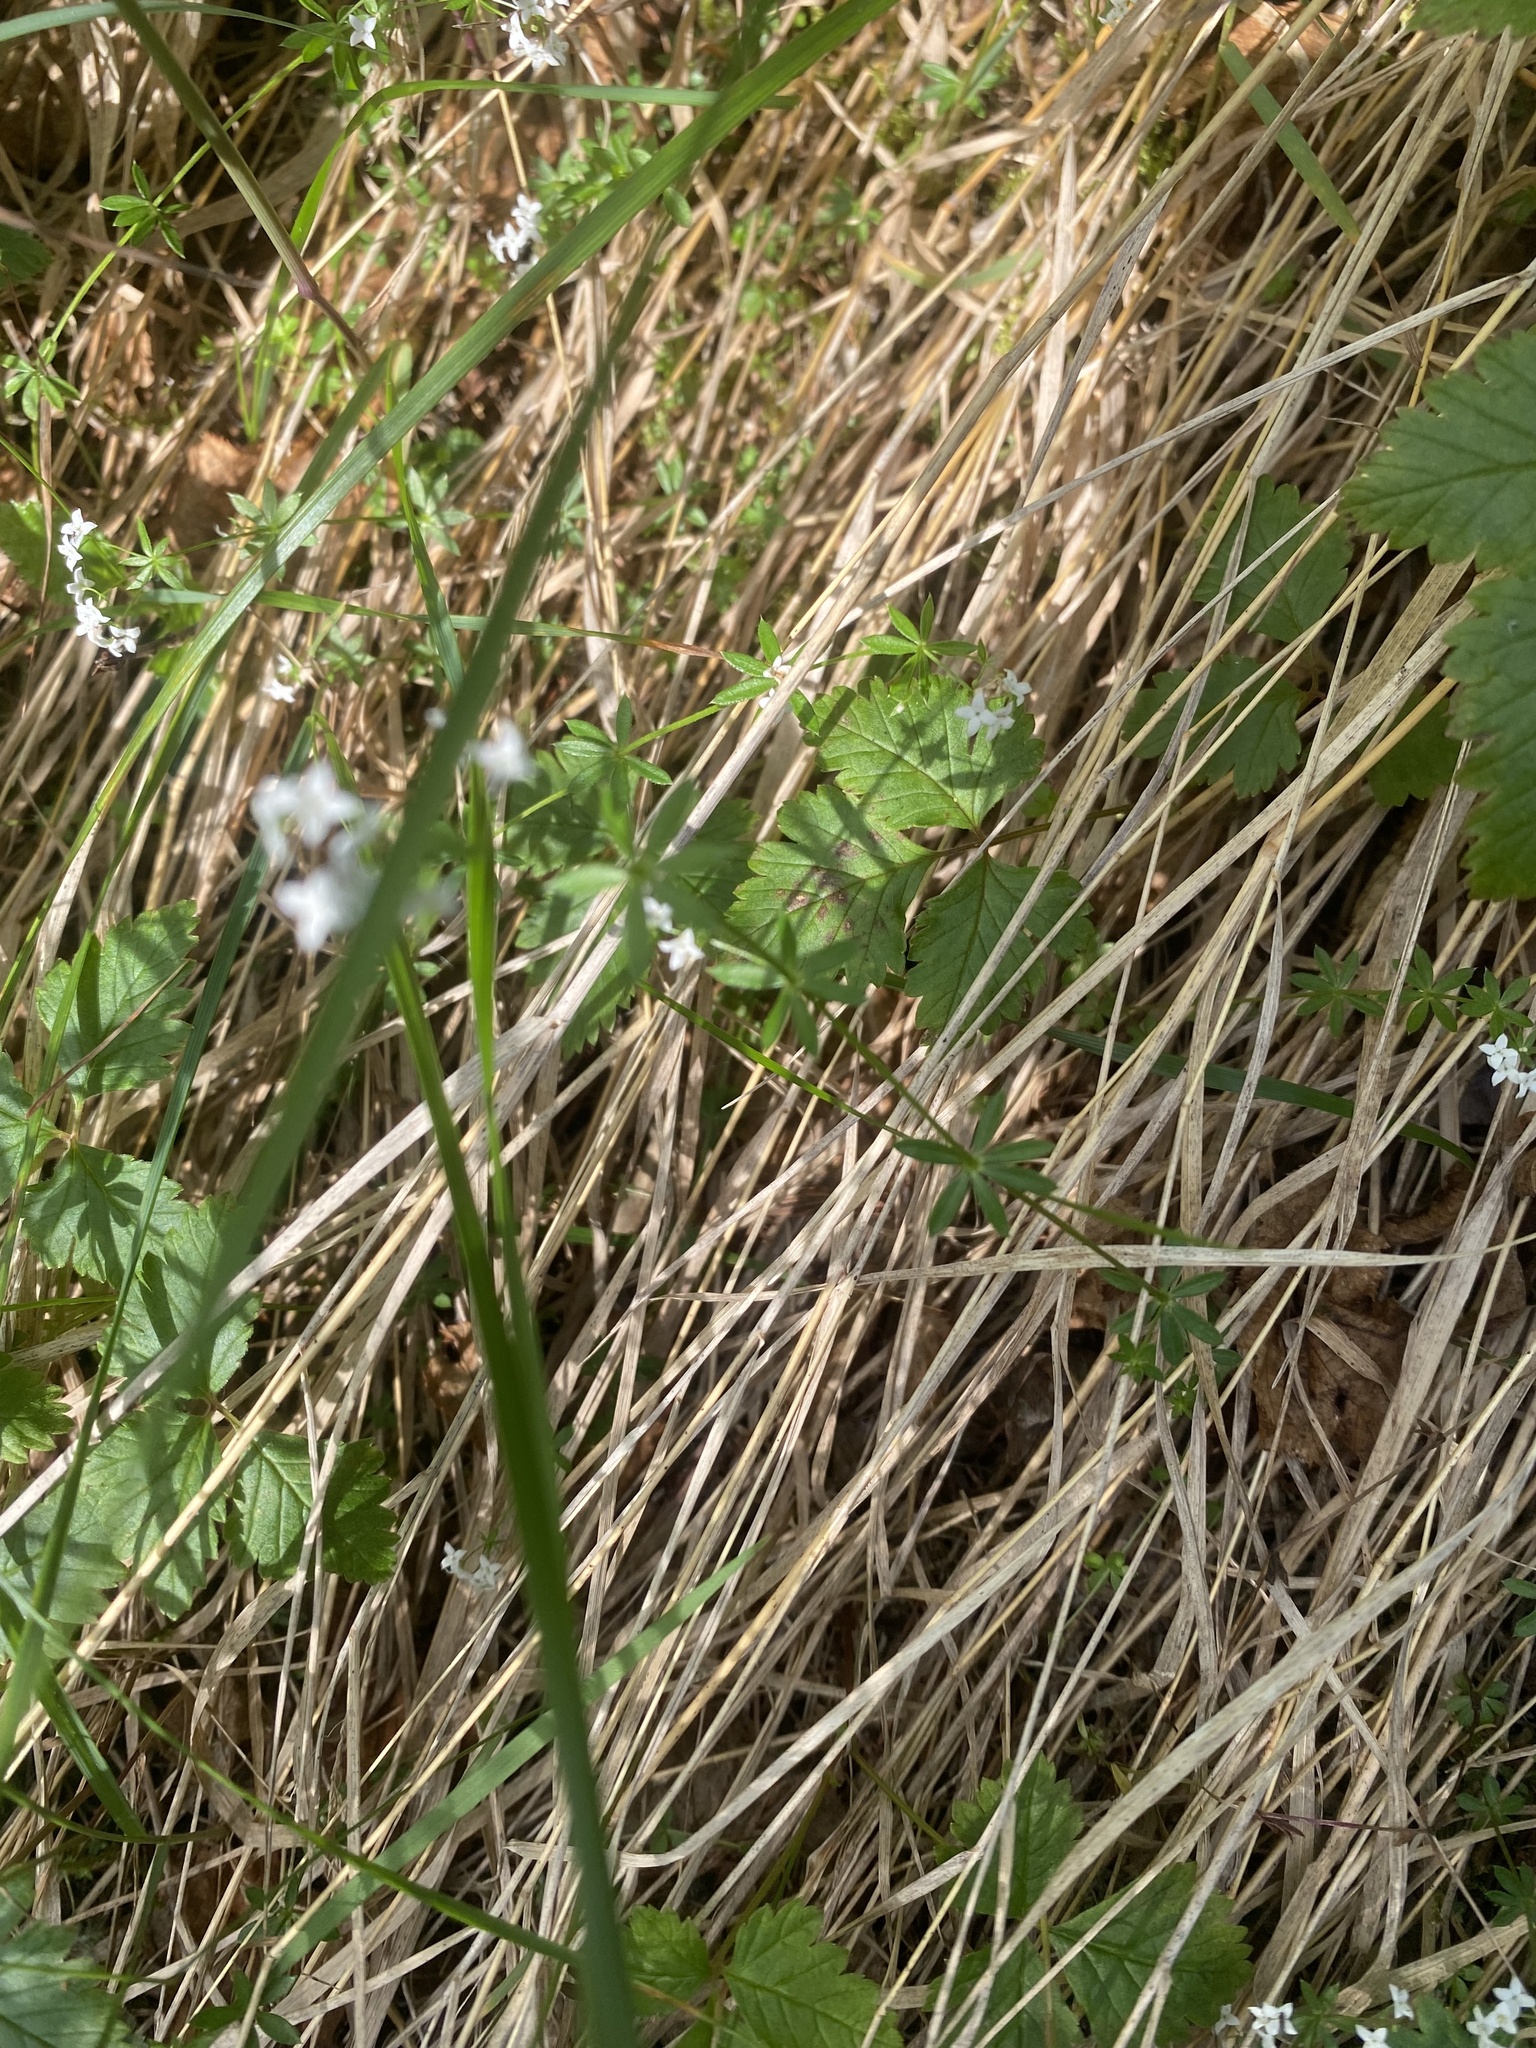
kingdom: Plantae
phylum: Tracheophyta
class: Magnoliopsida
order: Gentianales
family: Rubiaceae
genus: Galium
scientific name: Galium uliginosum
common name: Fen bedstraw
